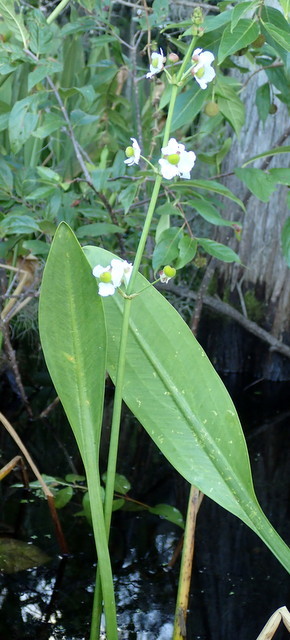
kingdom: Plantae
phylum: Tracheophyta
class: Liliopsida
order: Alismatales
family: Alismataceae
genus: Sagittaria
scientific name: Sagittaria lancifolia
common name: Lance-leaf arrowhead
